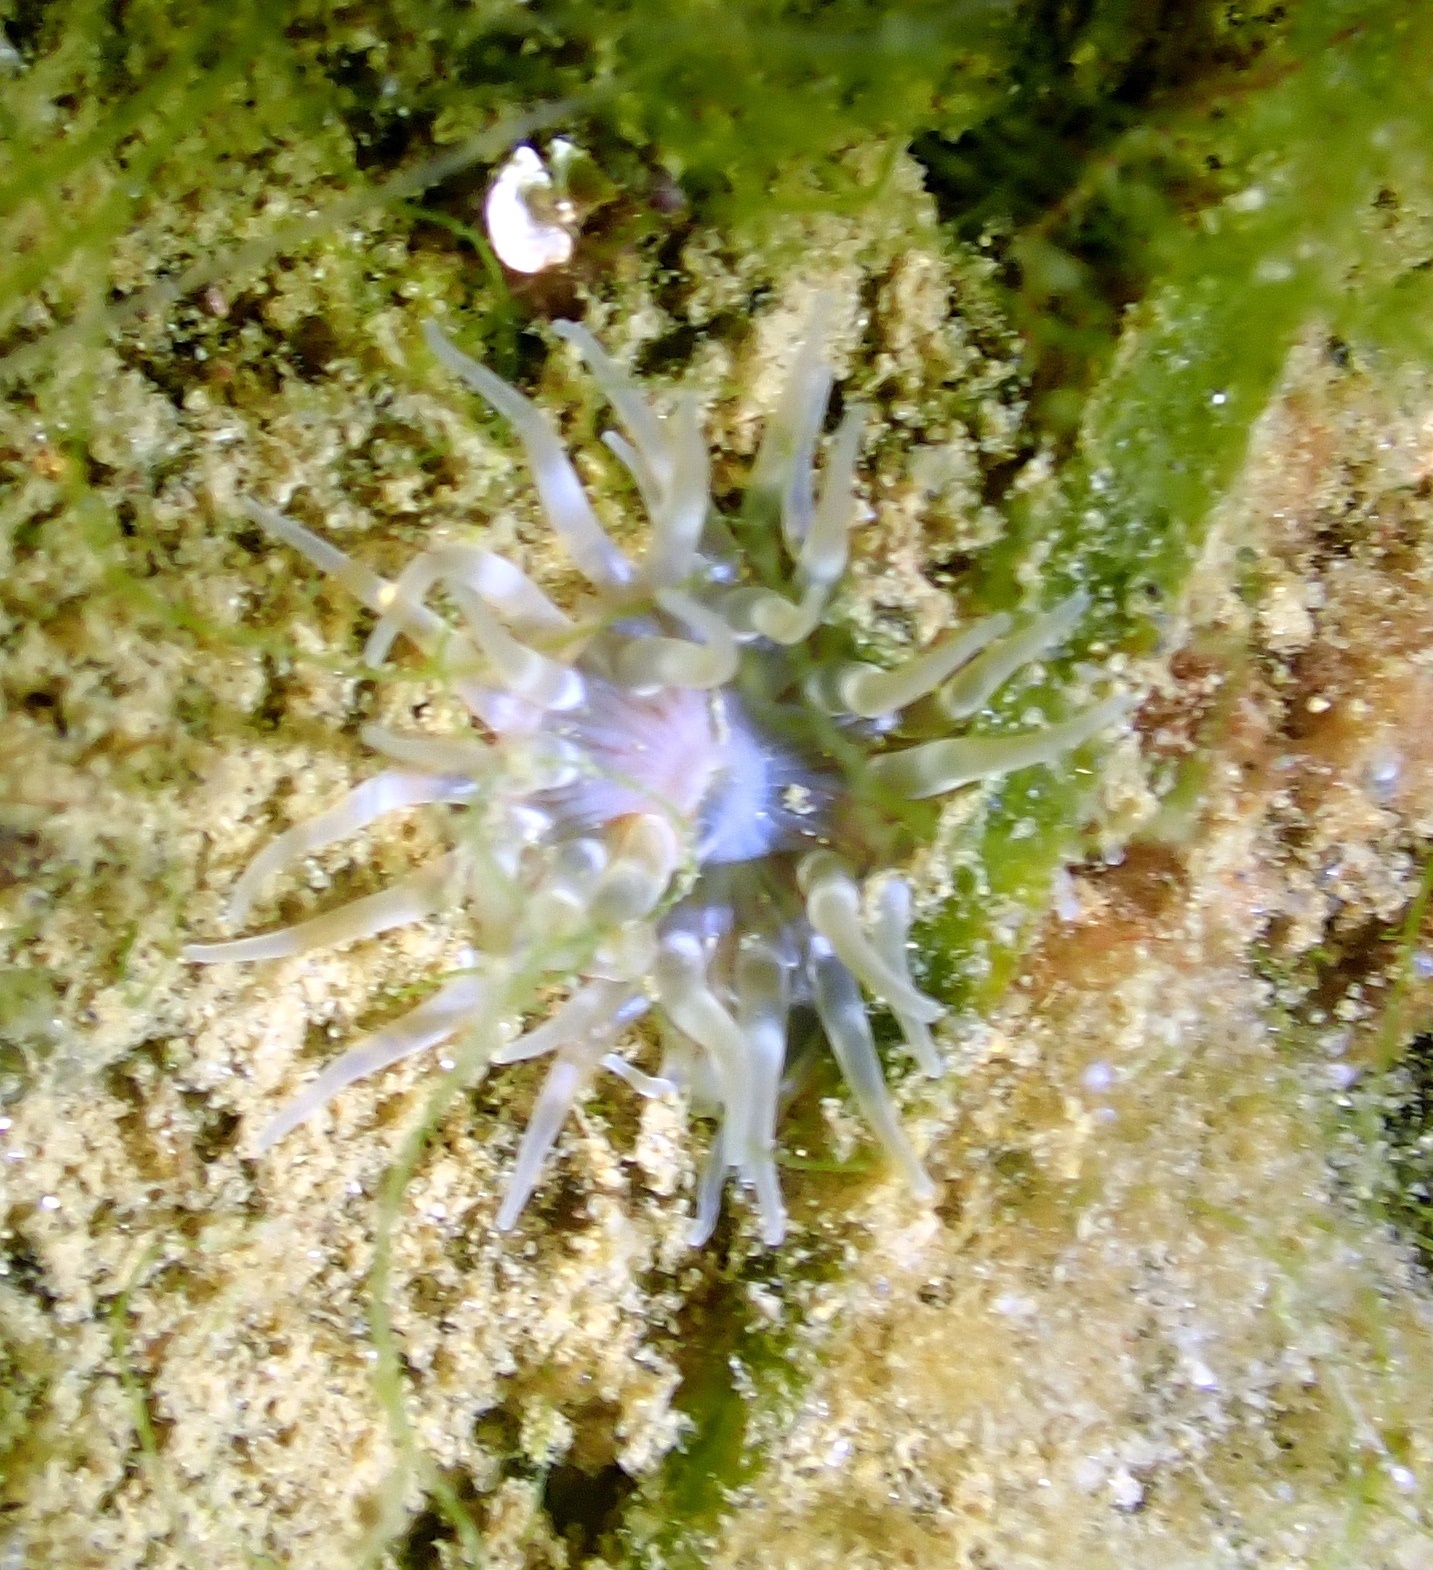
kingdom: Animalia
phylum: Cnidaria
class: Anthozoa
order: Actiniaria
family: Actiniidae
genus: Urticina
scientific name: Urticina felina
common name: Dahlia anemone
